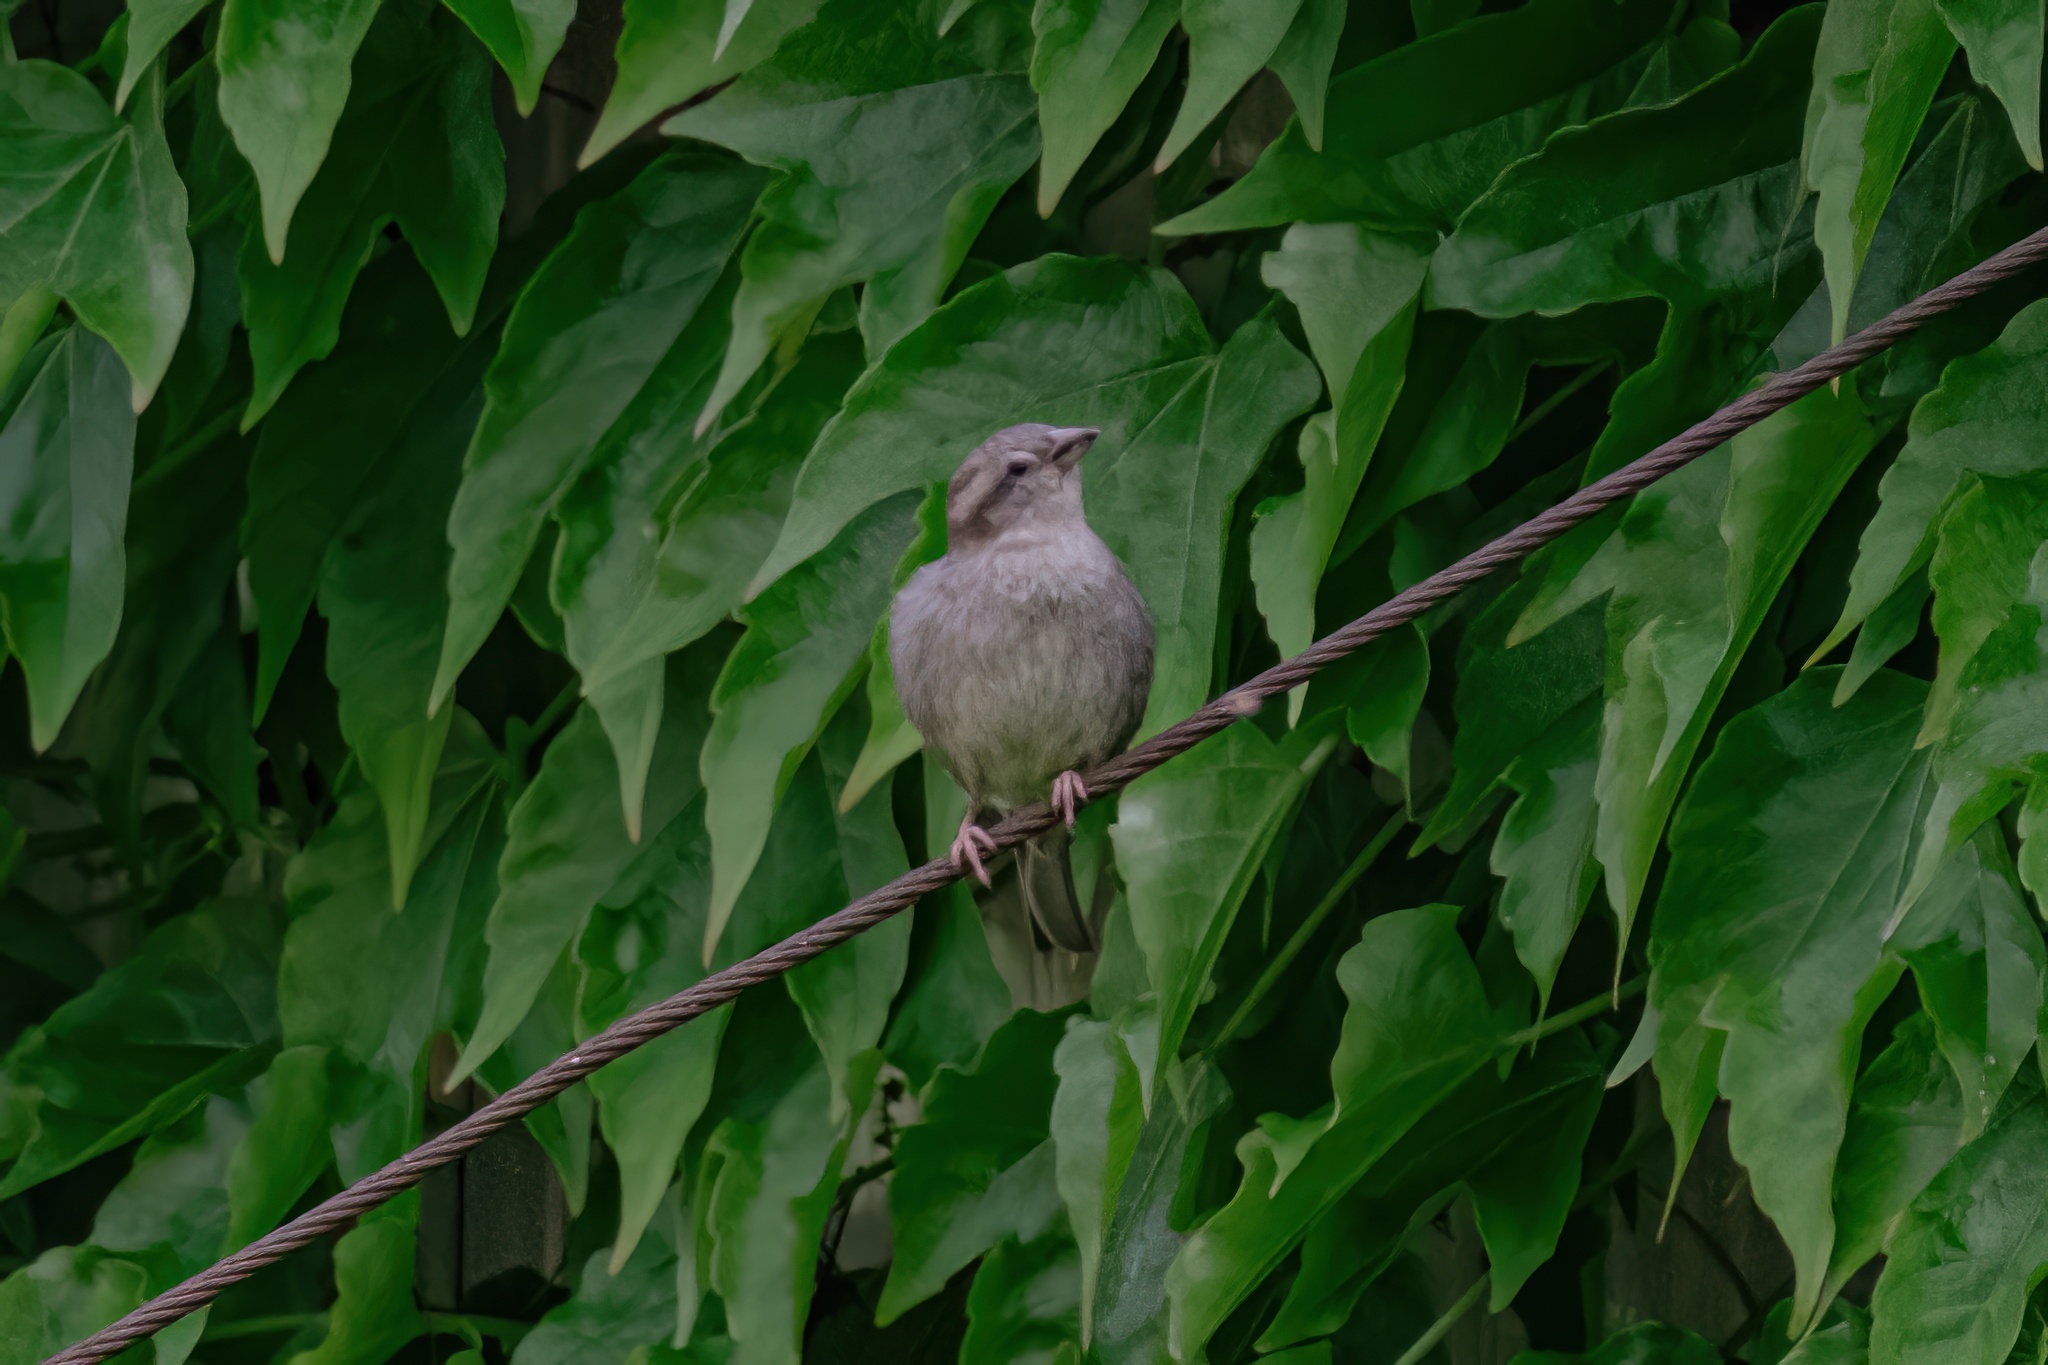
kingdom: Animalia
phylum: Chordata
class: Aves
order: Passeriformes
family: Passeridae
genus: Passer
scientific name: Passer domesticus
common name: House sparrow
